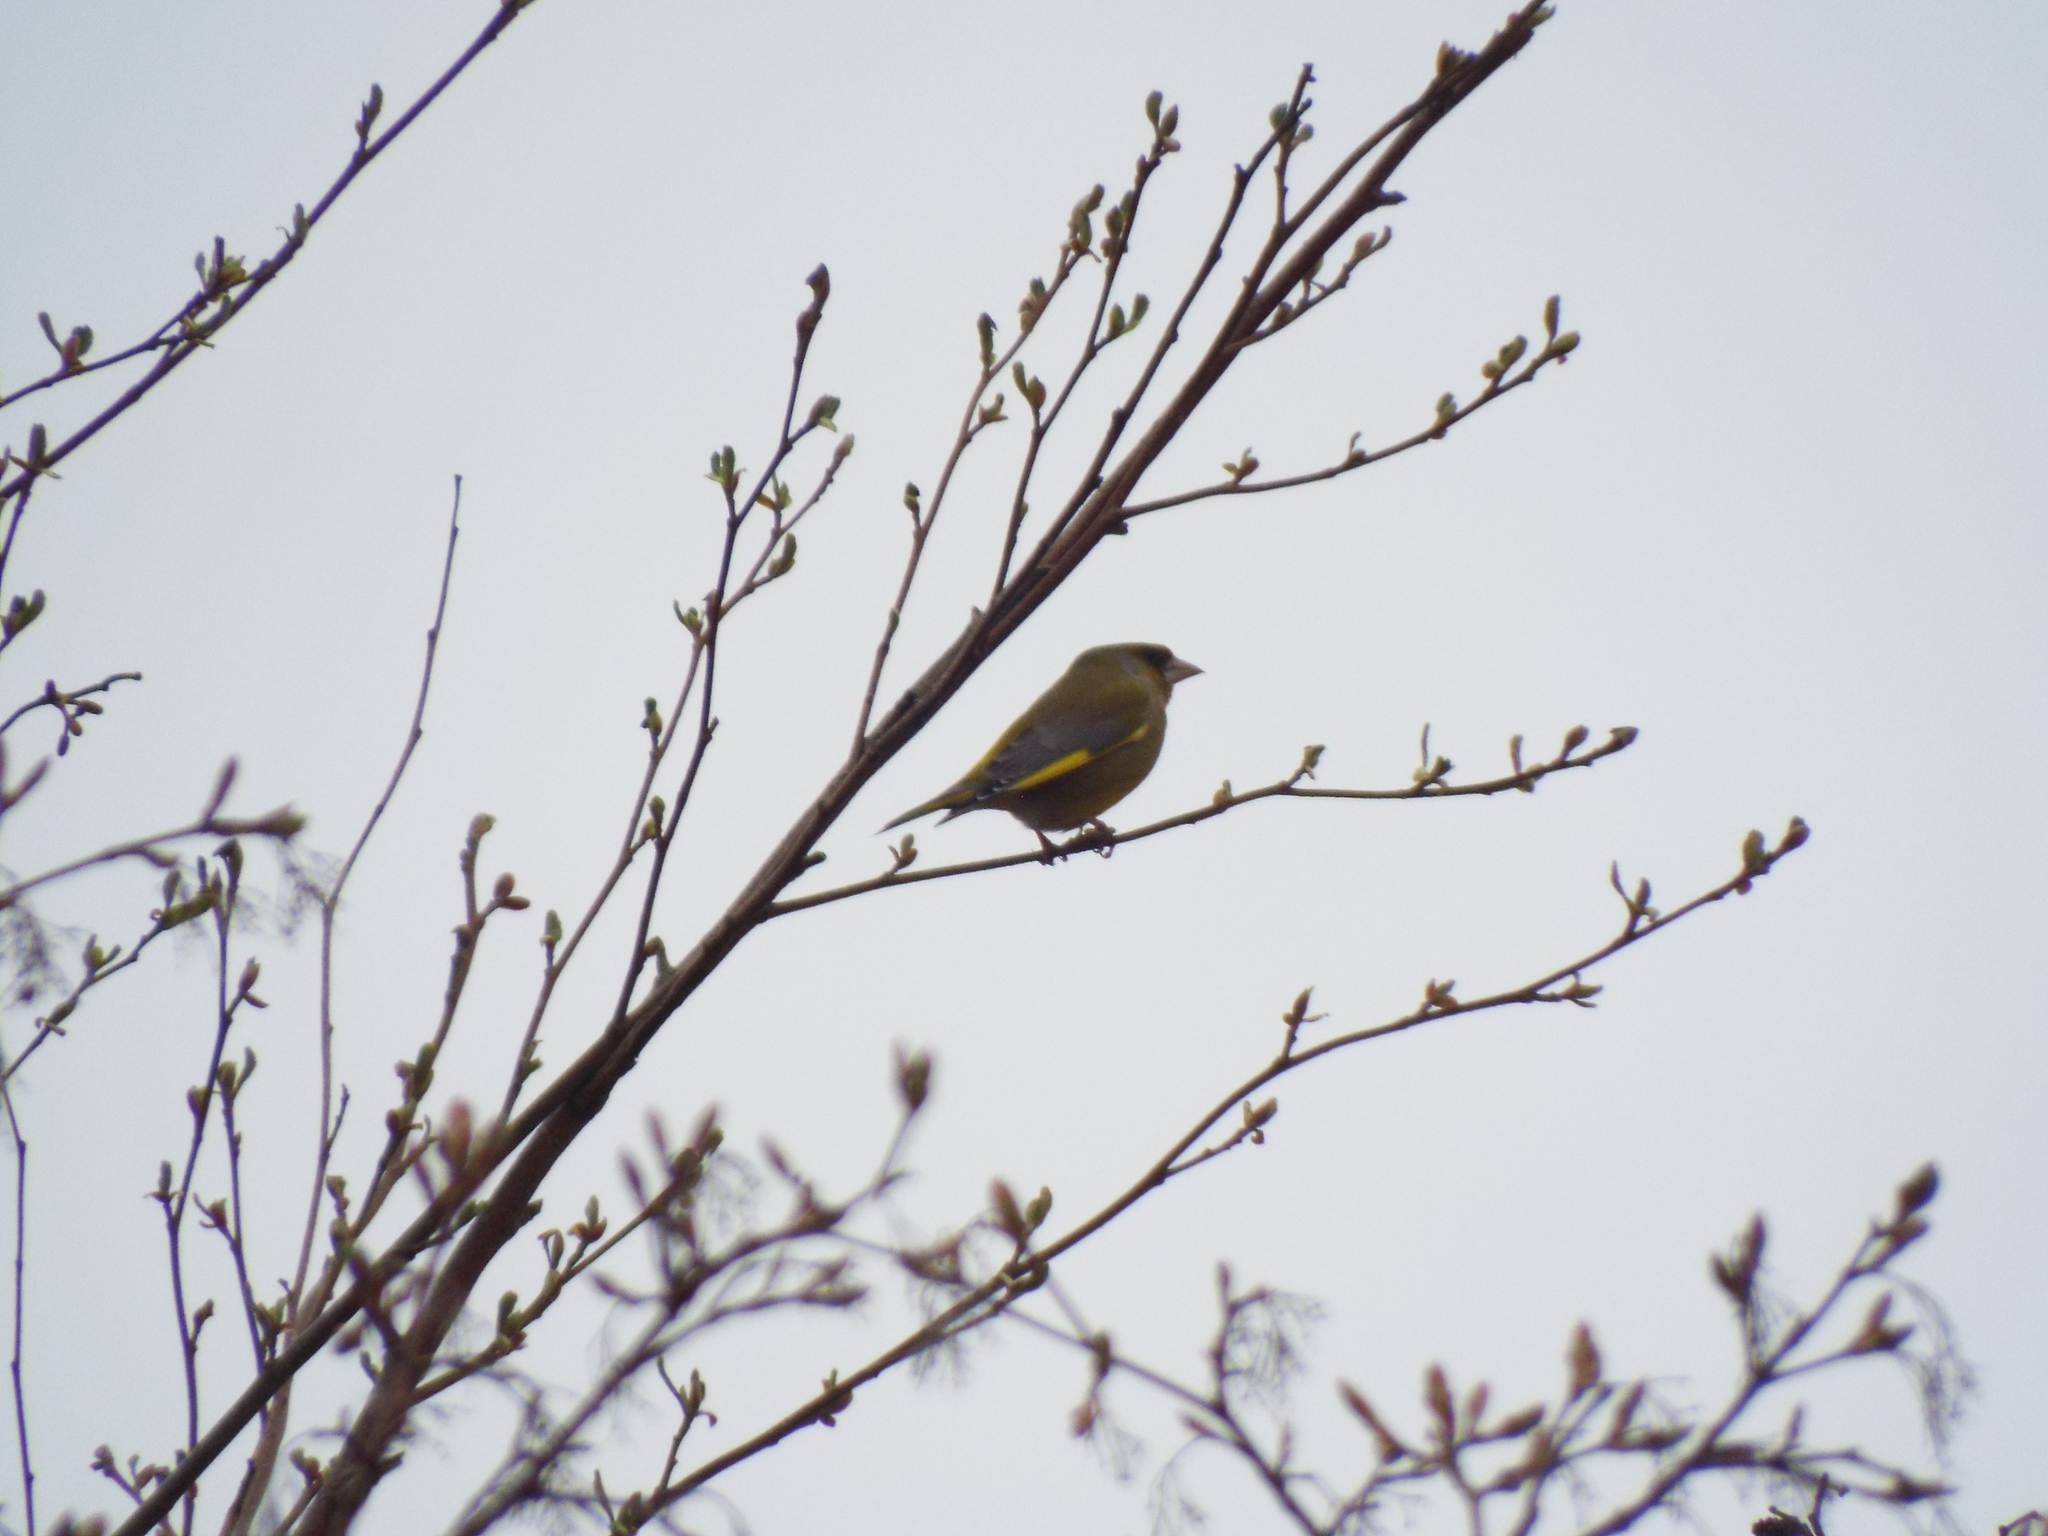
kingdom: Plantae
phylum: Tracheophyta
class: Liliopsida
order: Poales
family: Poaceae
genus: Chloris
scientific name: Chloris chloris
